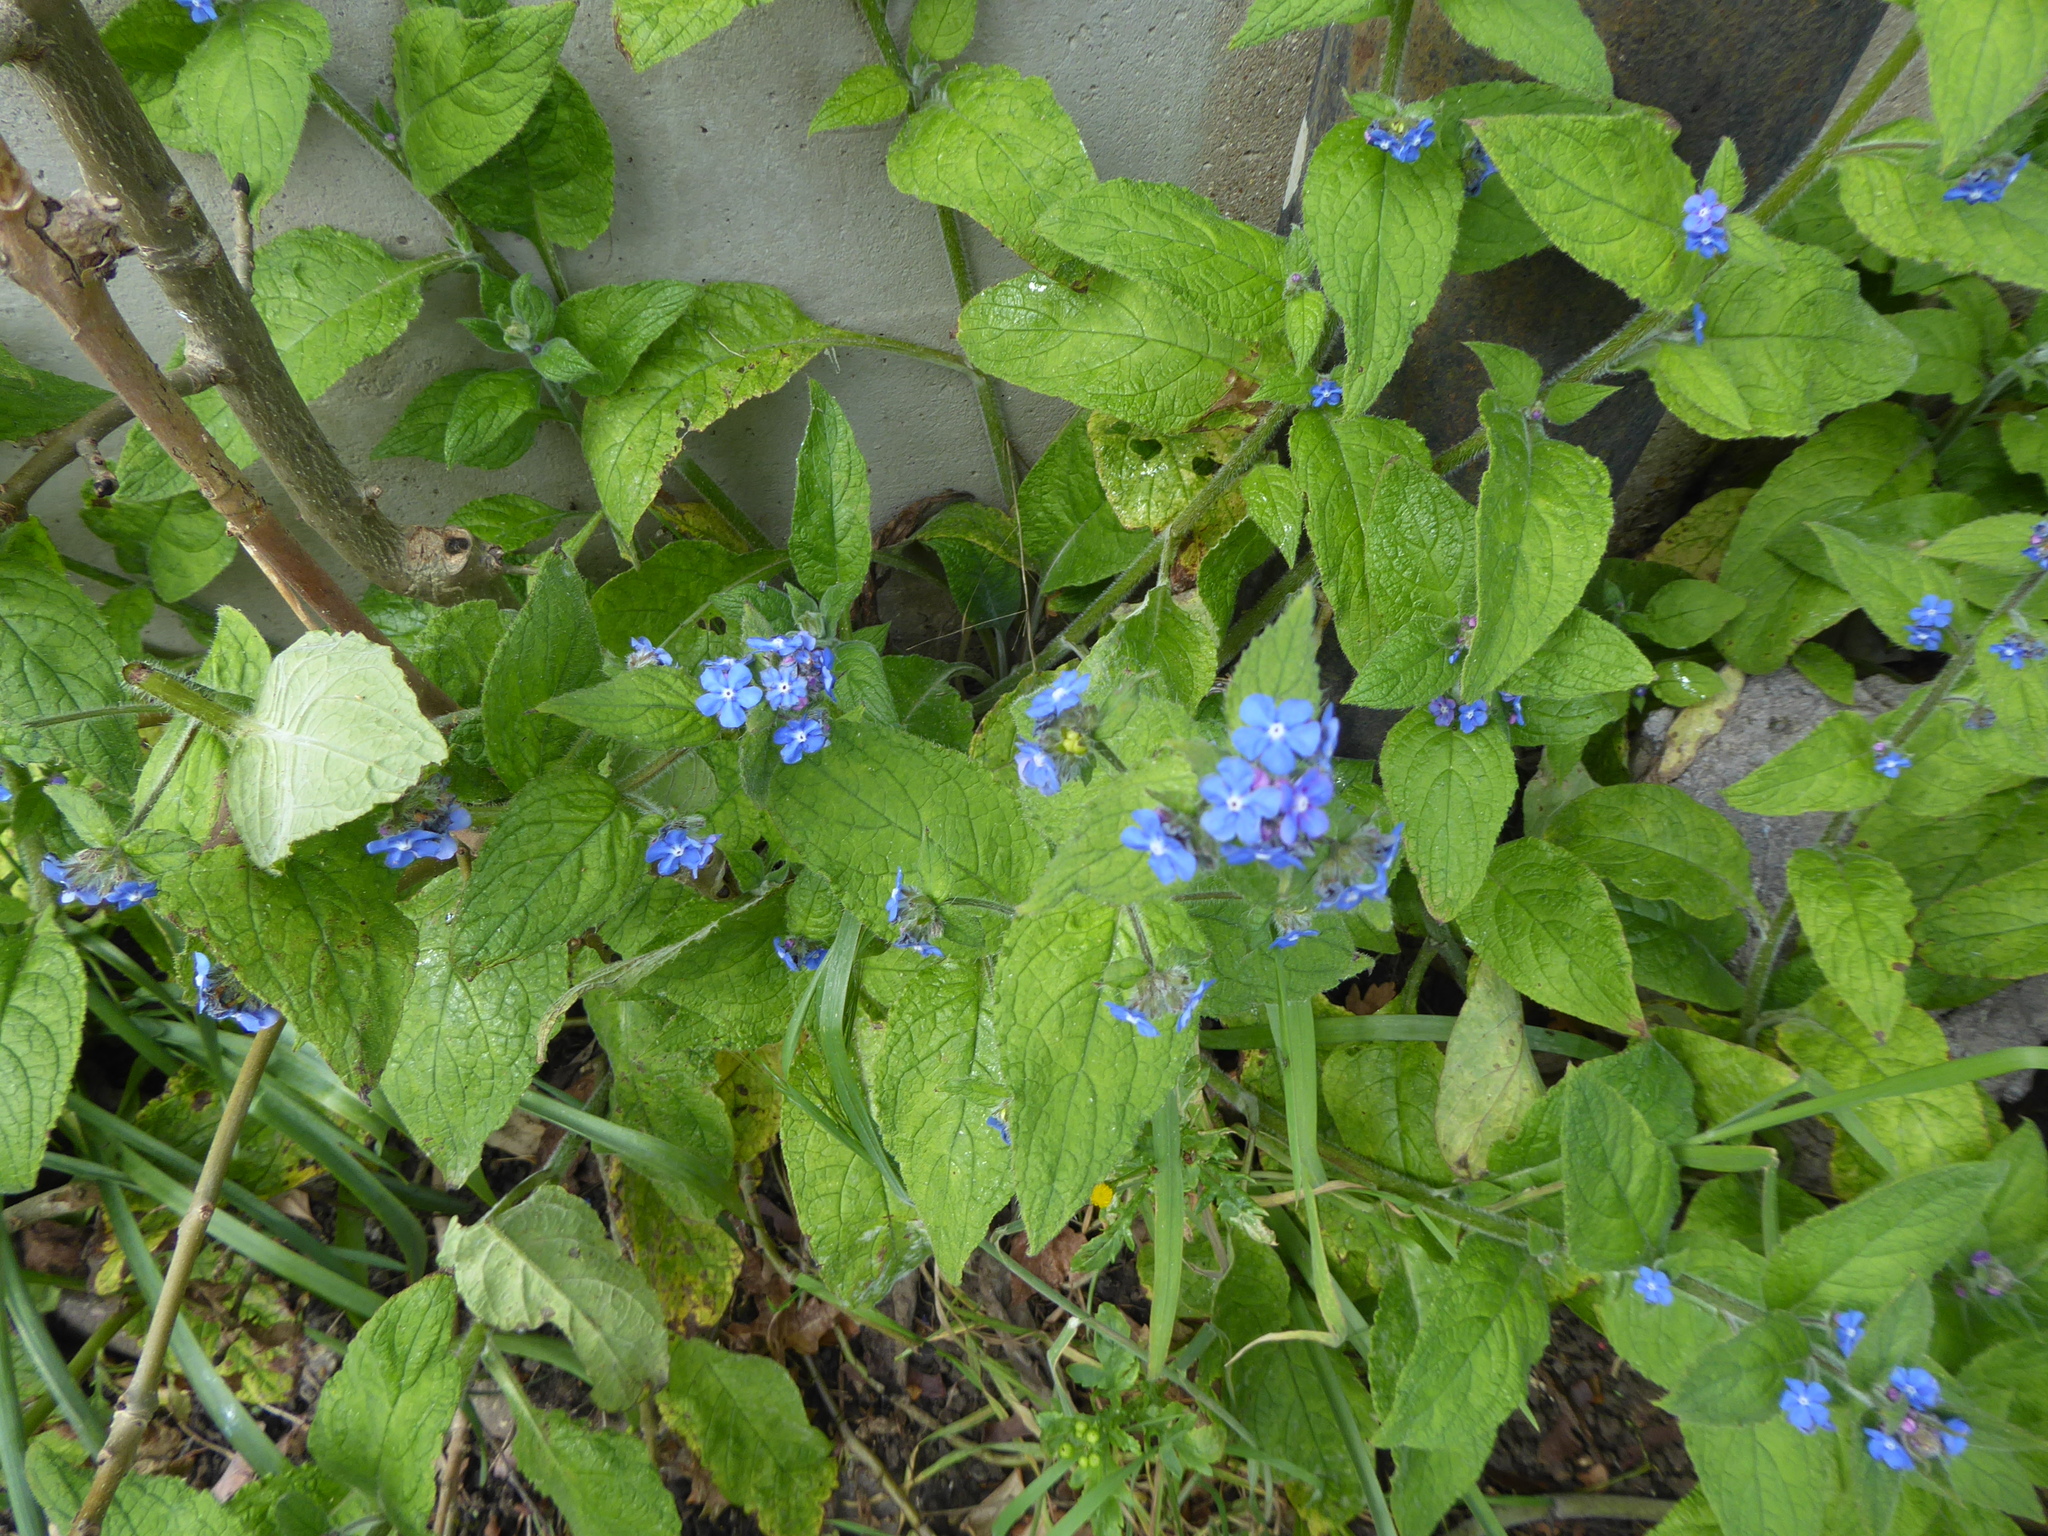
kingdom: Plantae
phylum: Tracheophyta
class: Magnoliopsida
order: Boraginales
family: Boraginaceae
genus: Pentaglottis
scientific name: Pentaglottis sempervirens
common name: Green alkanet
